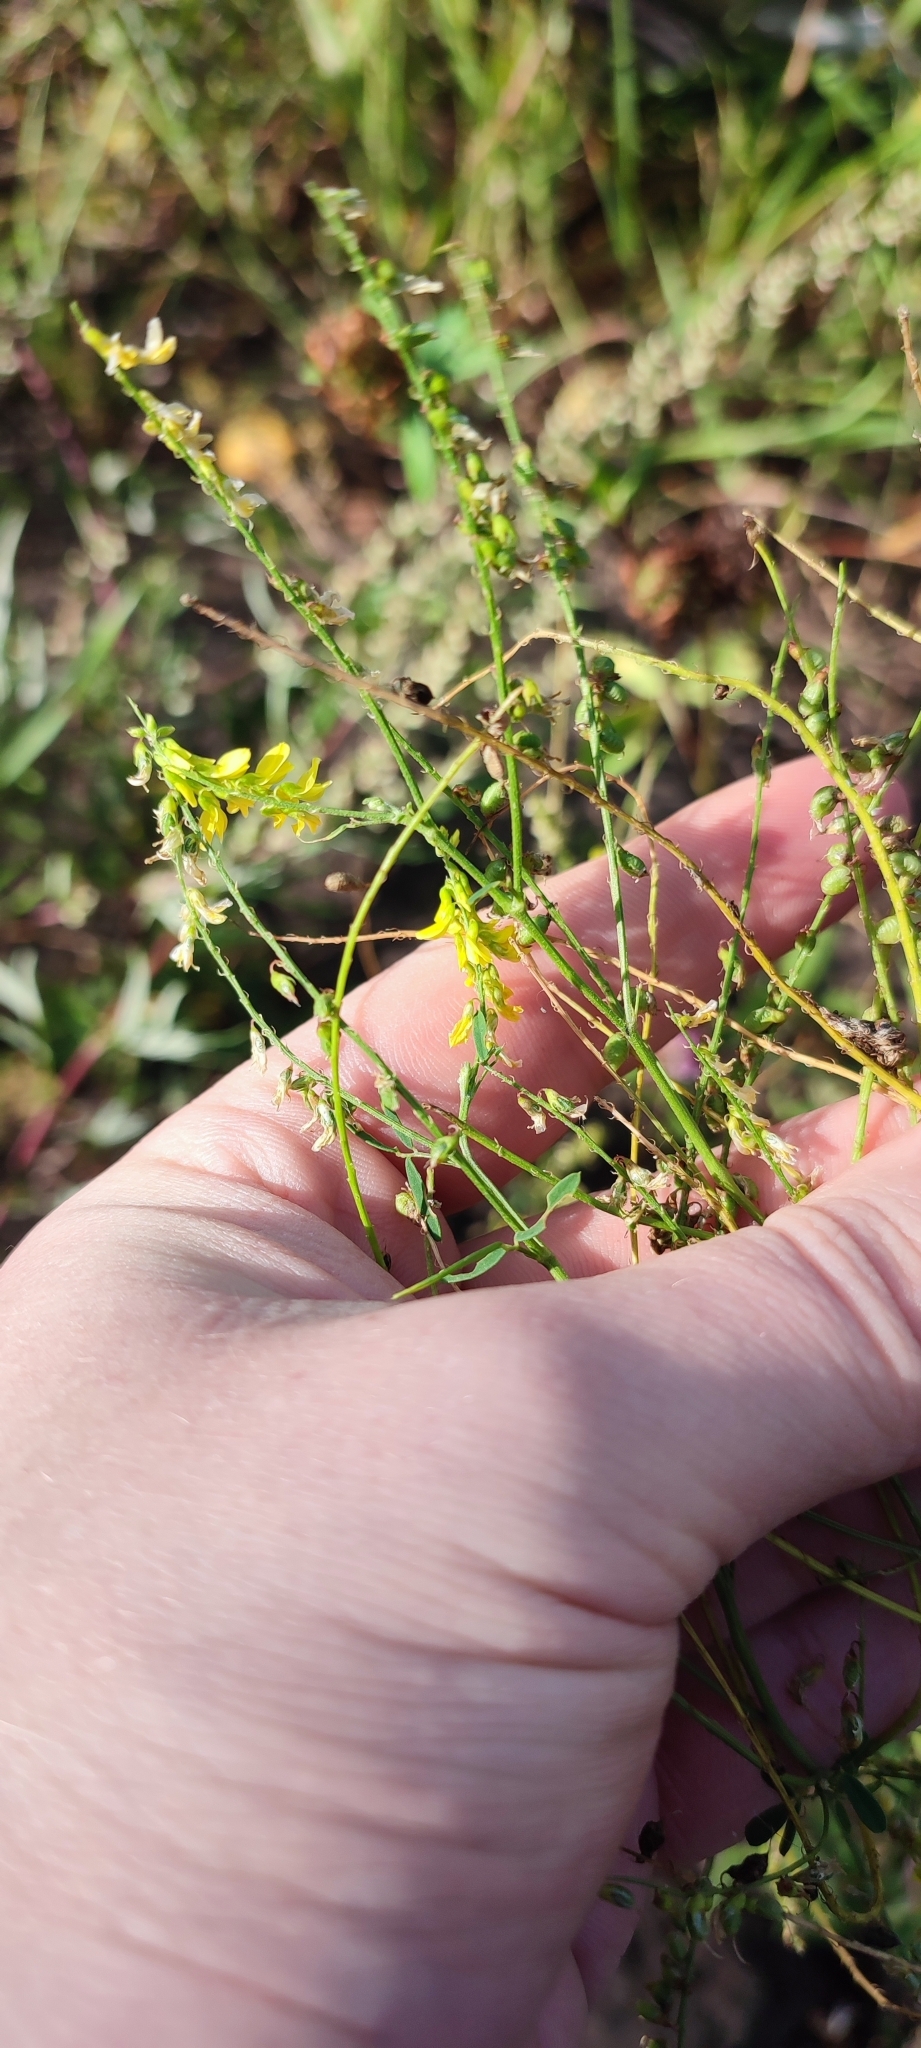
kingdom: Plantae
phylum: Tracheophyta
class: Magnoliopsida
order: Fabales
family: Fabaceae
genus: Melilotus
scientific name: Melilotus officinalis
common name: Sweetclover
